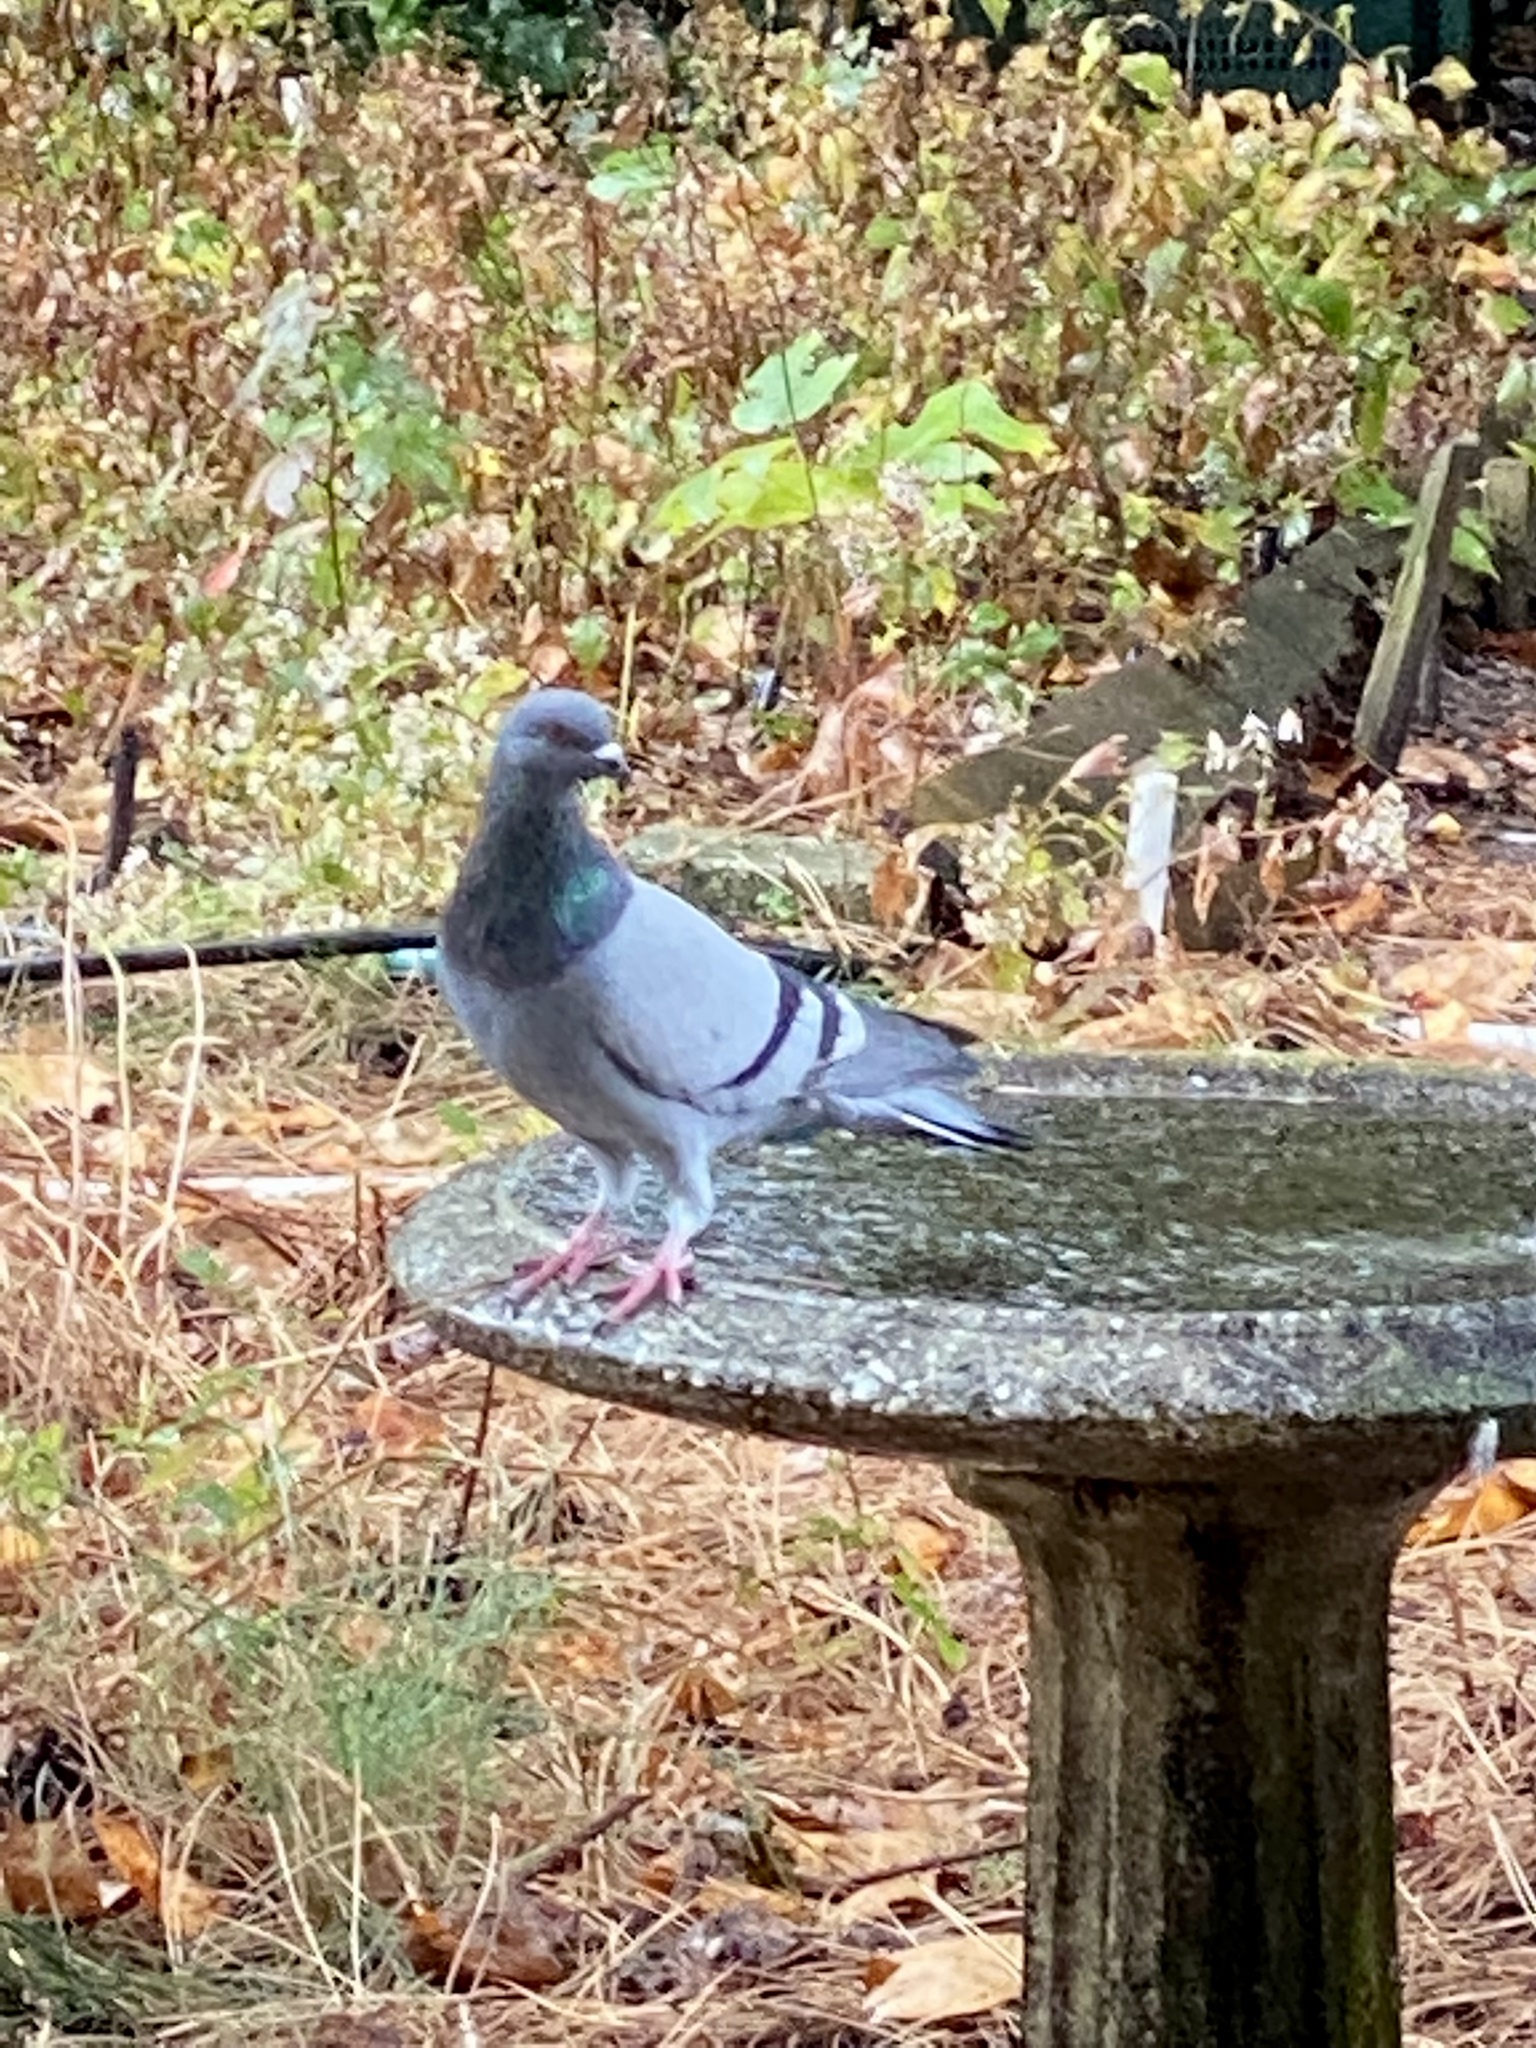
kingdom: Animalia
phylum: Chordata
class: Aves
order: Columbiformes
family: Columbidae
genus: Columba
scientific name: Columba livia
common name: Rock pigeon
